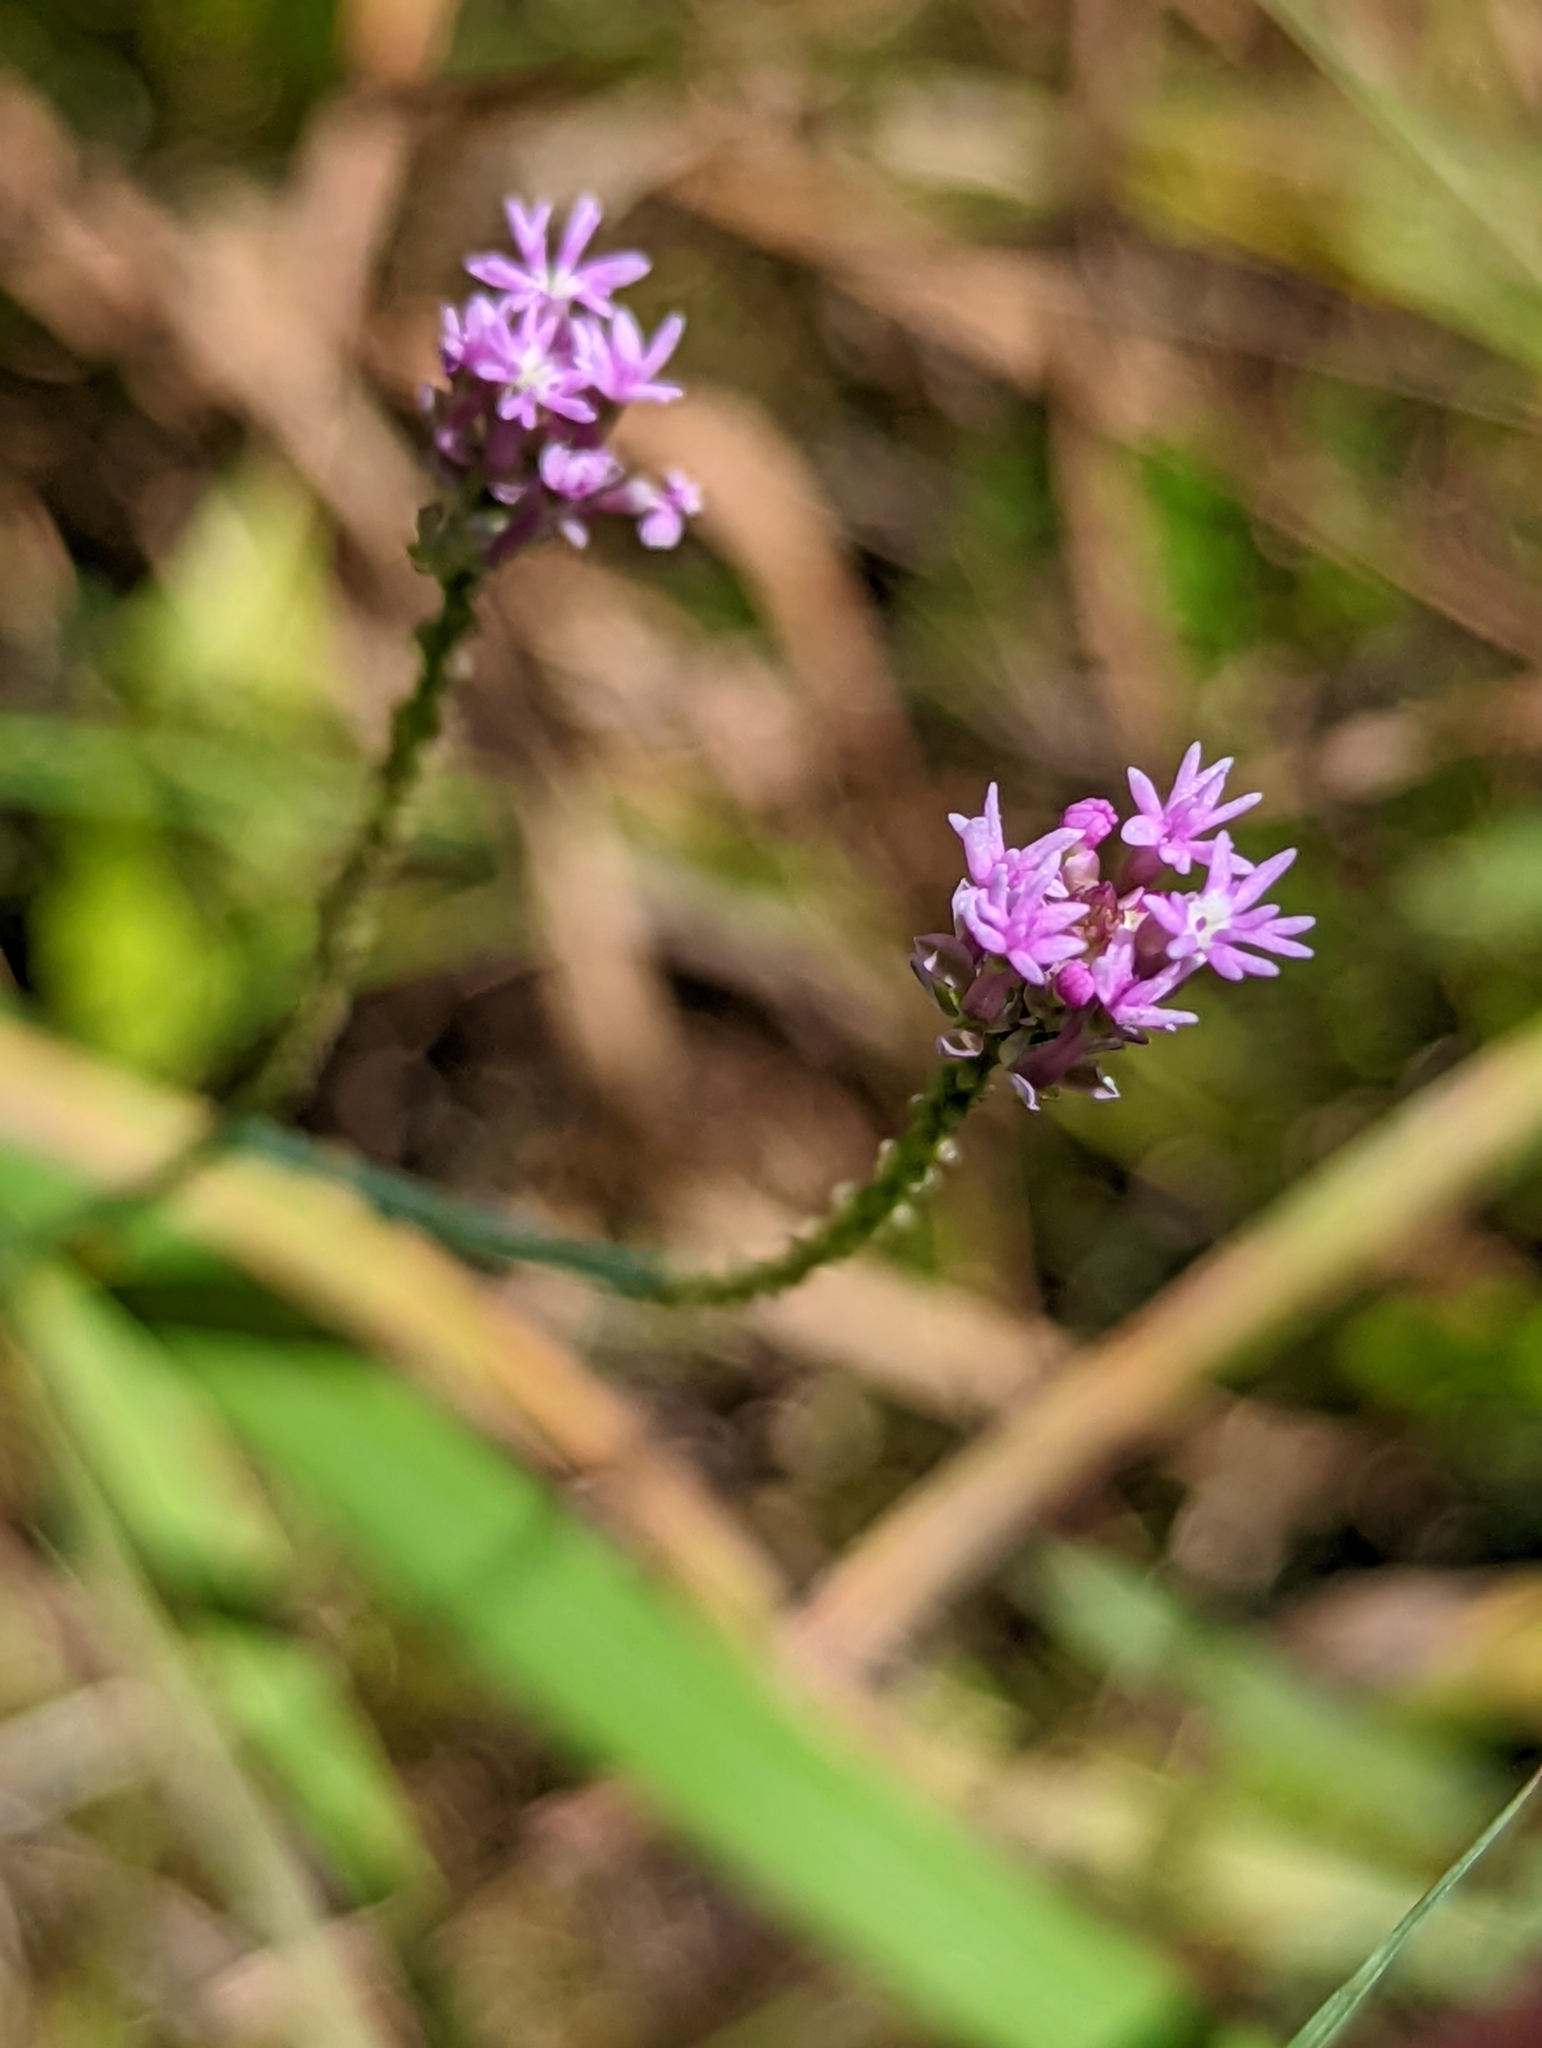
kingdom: Plantae
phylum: Tracheophyta
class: Magnoliopsida
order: Fabales
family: Polygalaceae
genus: Polygala
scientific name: Polygala incarnata
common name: Pink milkwort
